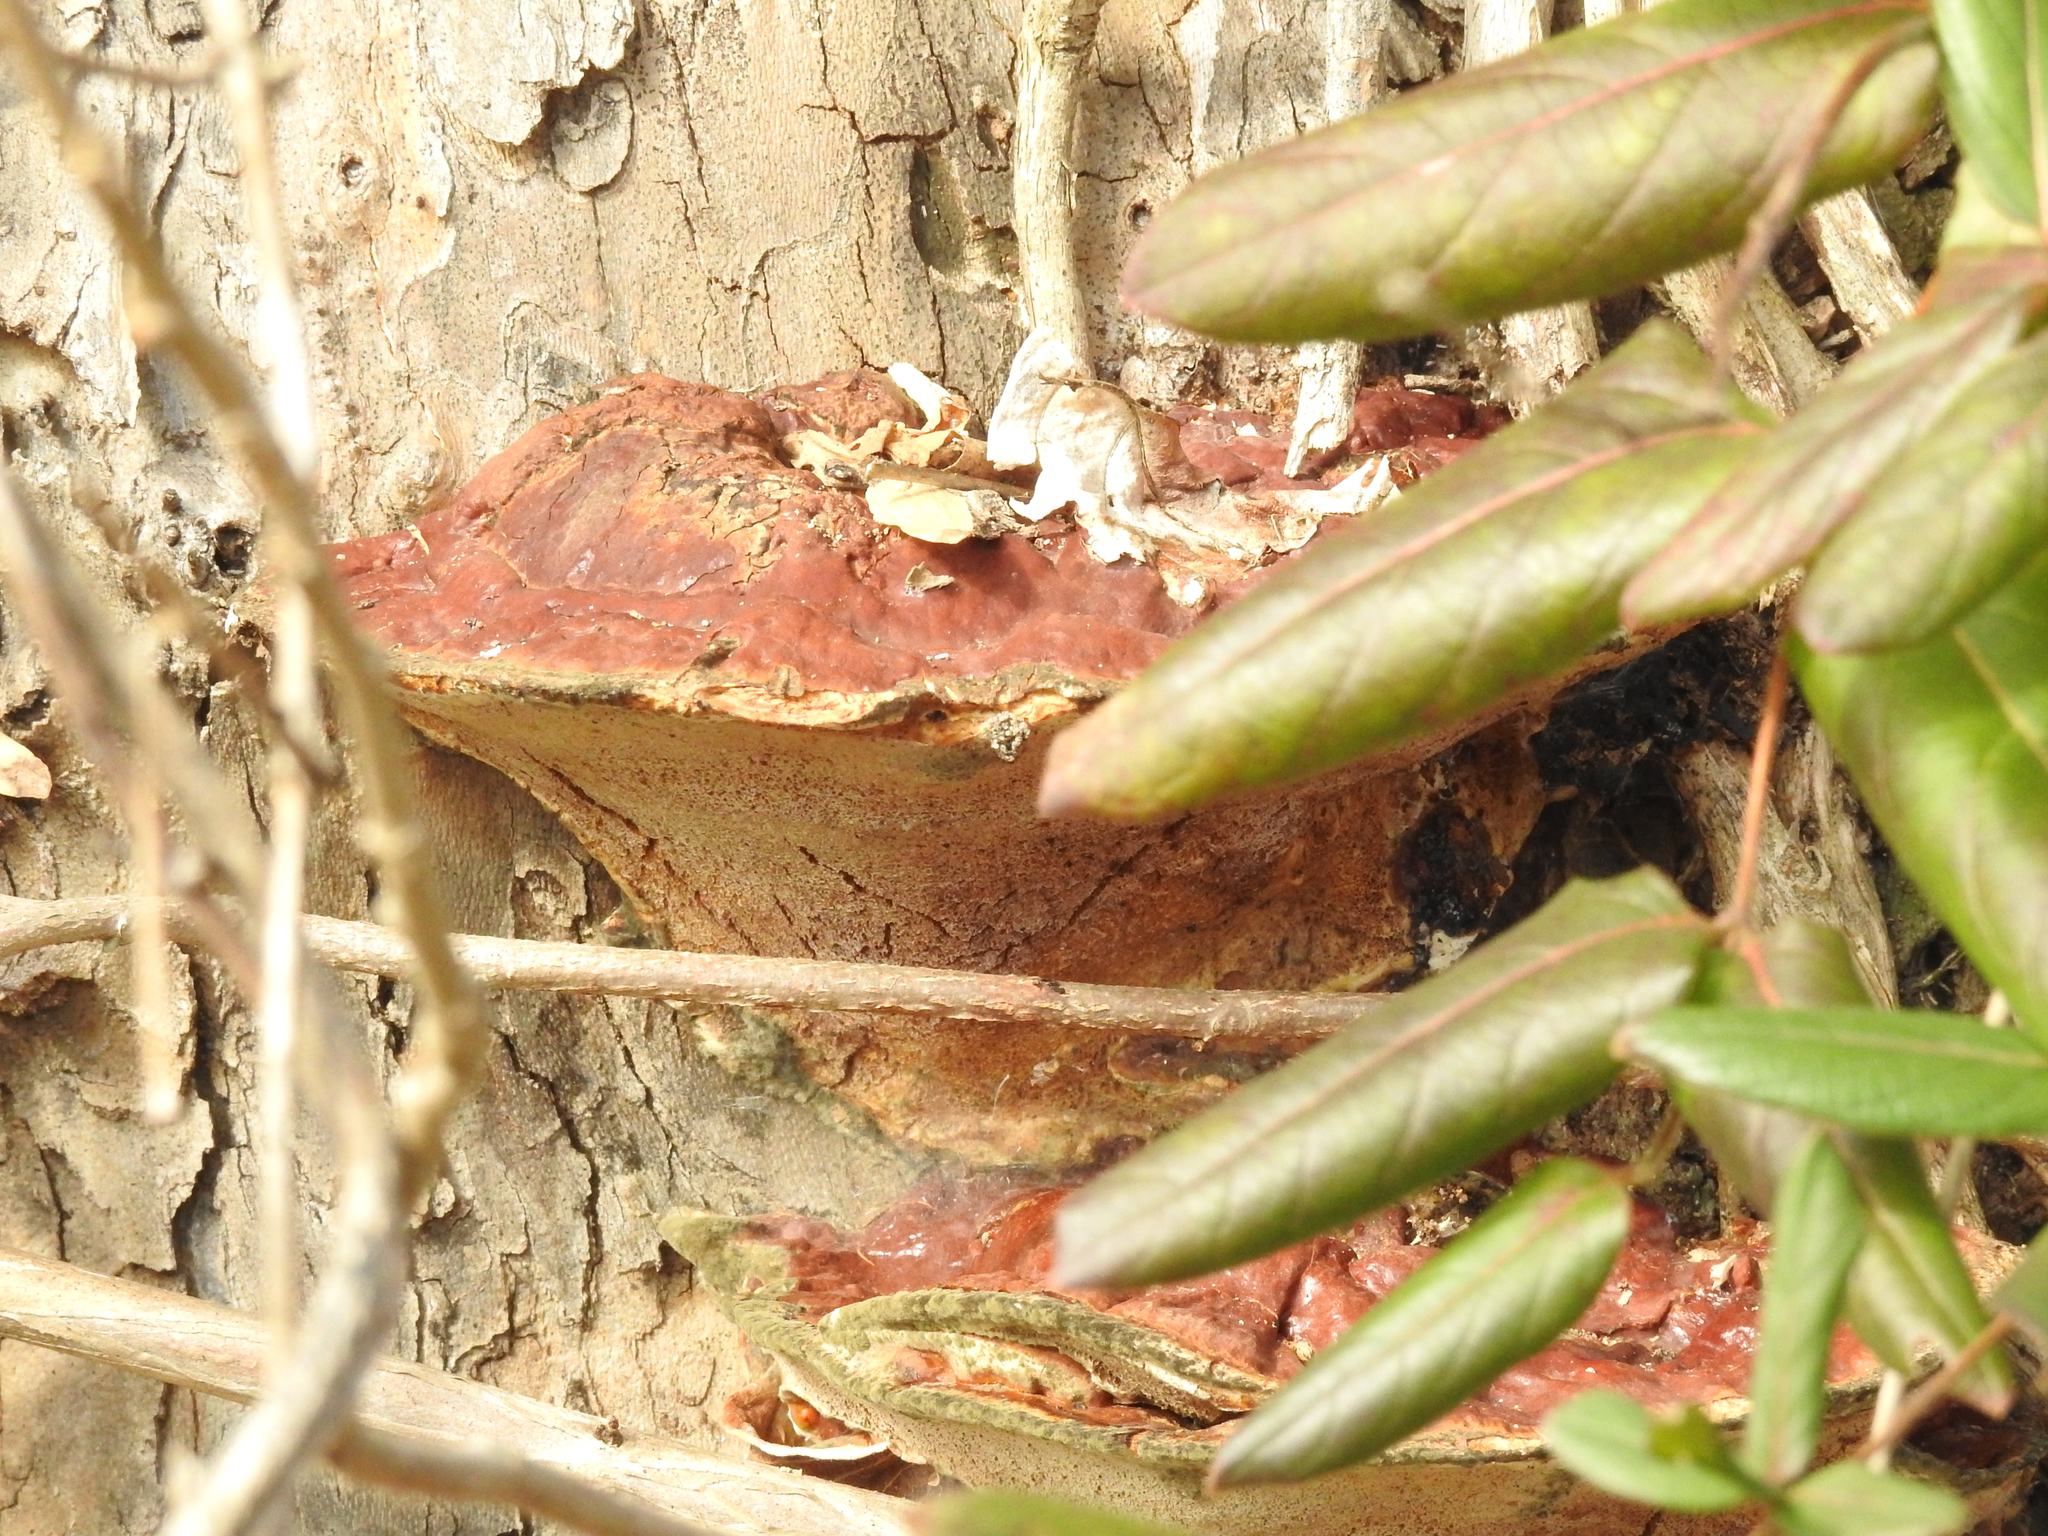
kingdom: Fungi
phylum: Basidiomycota
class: Agaricomycetes
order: Polyporales
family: Polyporaceae
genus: Ganoderma
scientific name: Ganoderma resinaceum
